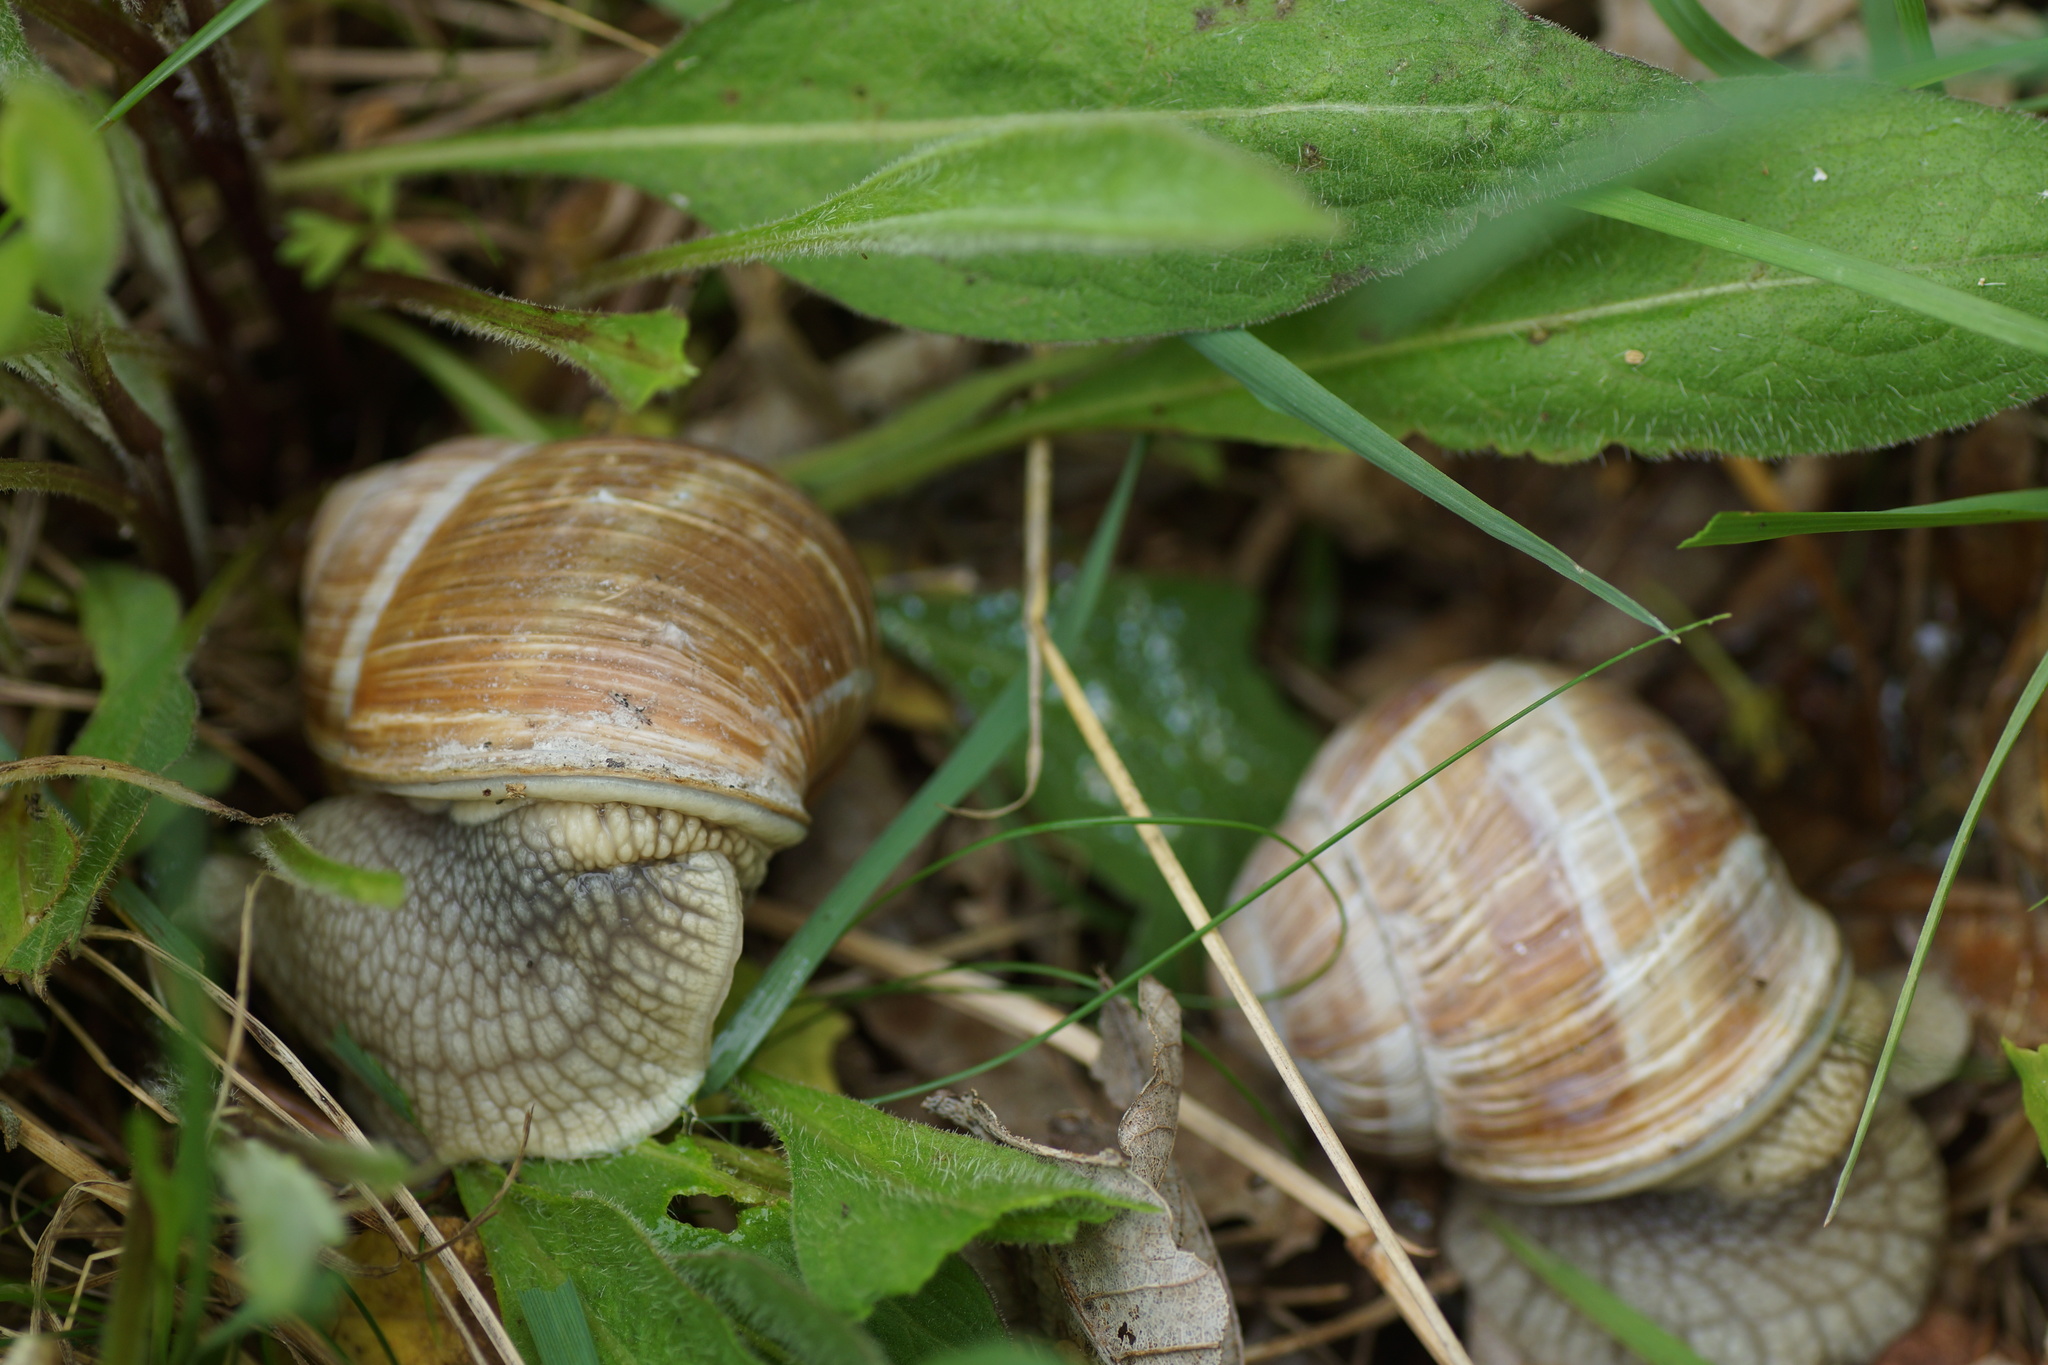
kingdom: Animalia
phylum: Mollusca
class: Gastropoda
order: Stylommatophora
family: Helicidae
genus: Helix
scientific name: Helix pomatia
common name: Roman snail
